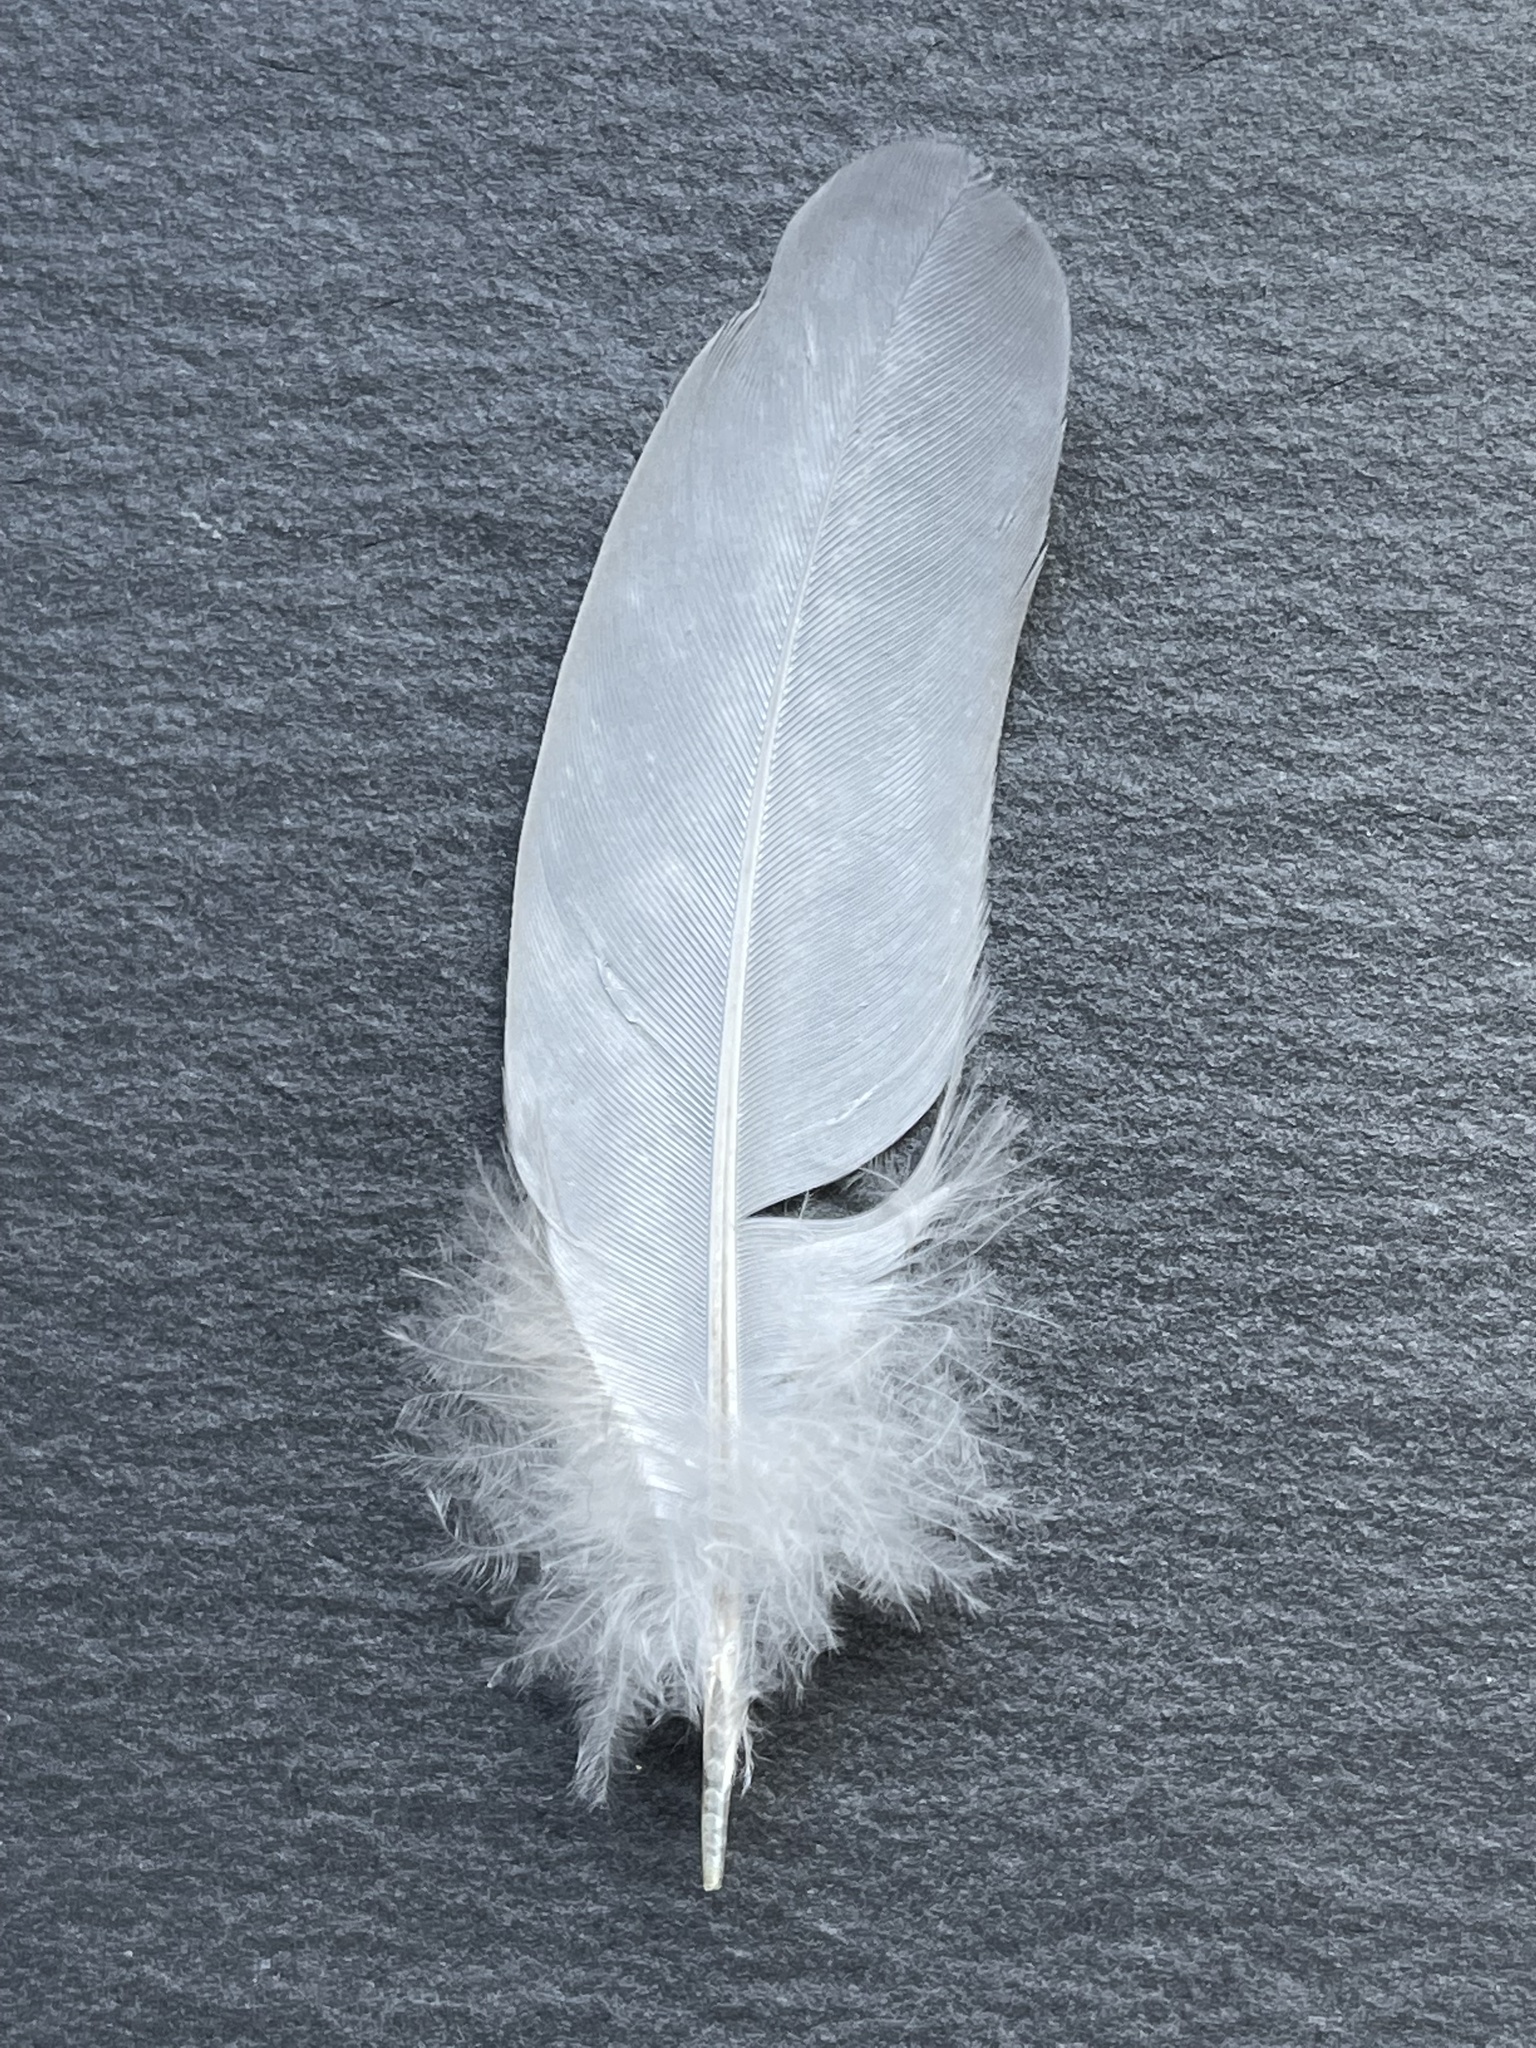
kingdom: Animalia
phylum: Chordata
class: Aves
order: Columbiformes
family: Columbidae
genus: Streptopelia
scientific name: Streptopelia decaocto
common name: Eurasian collared dove
